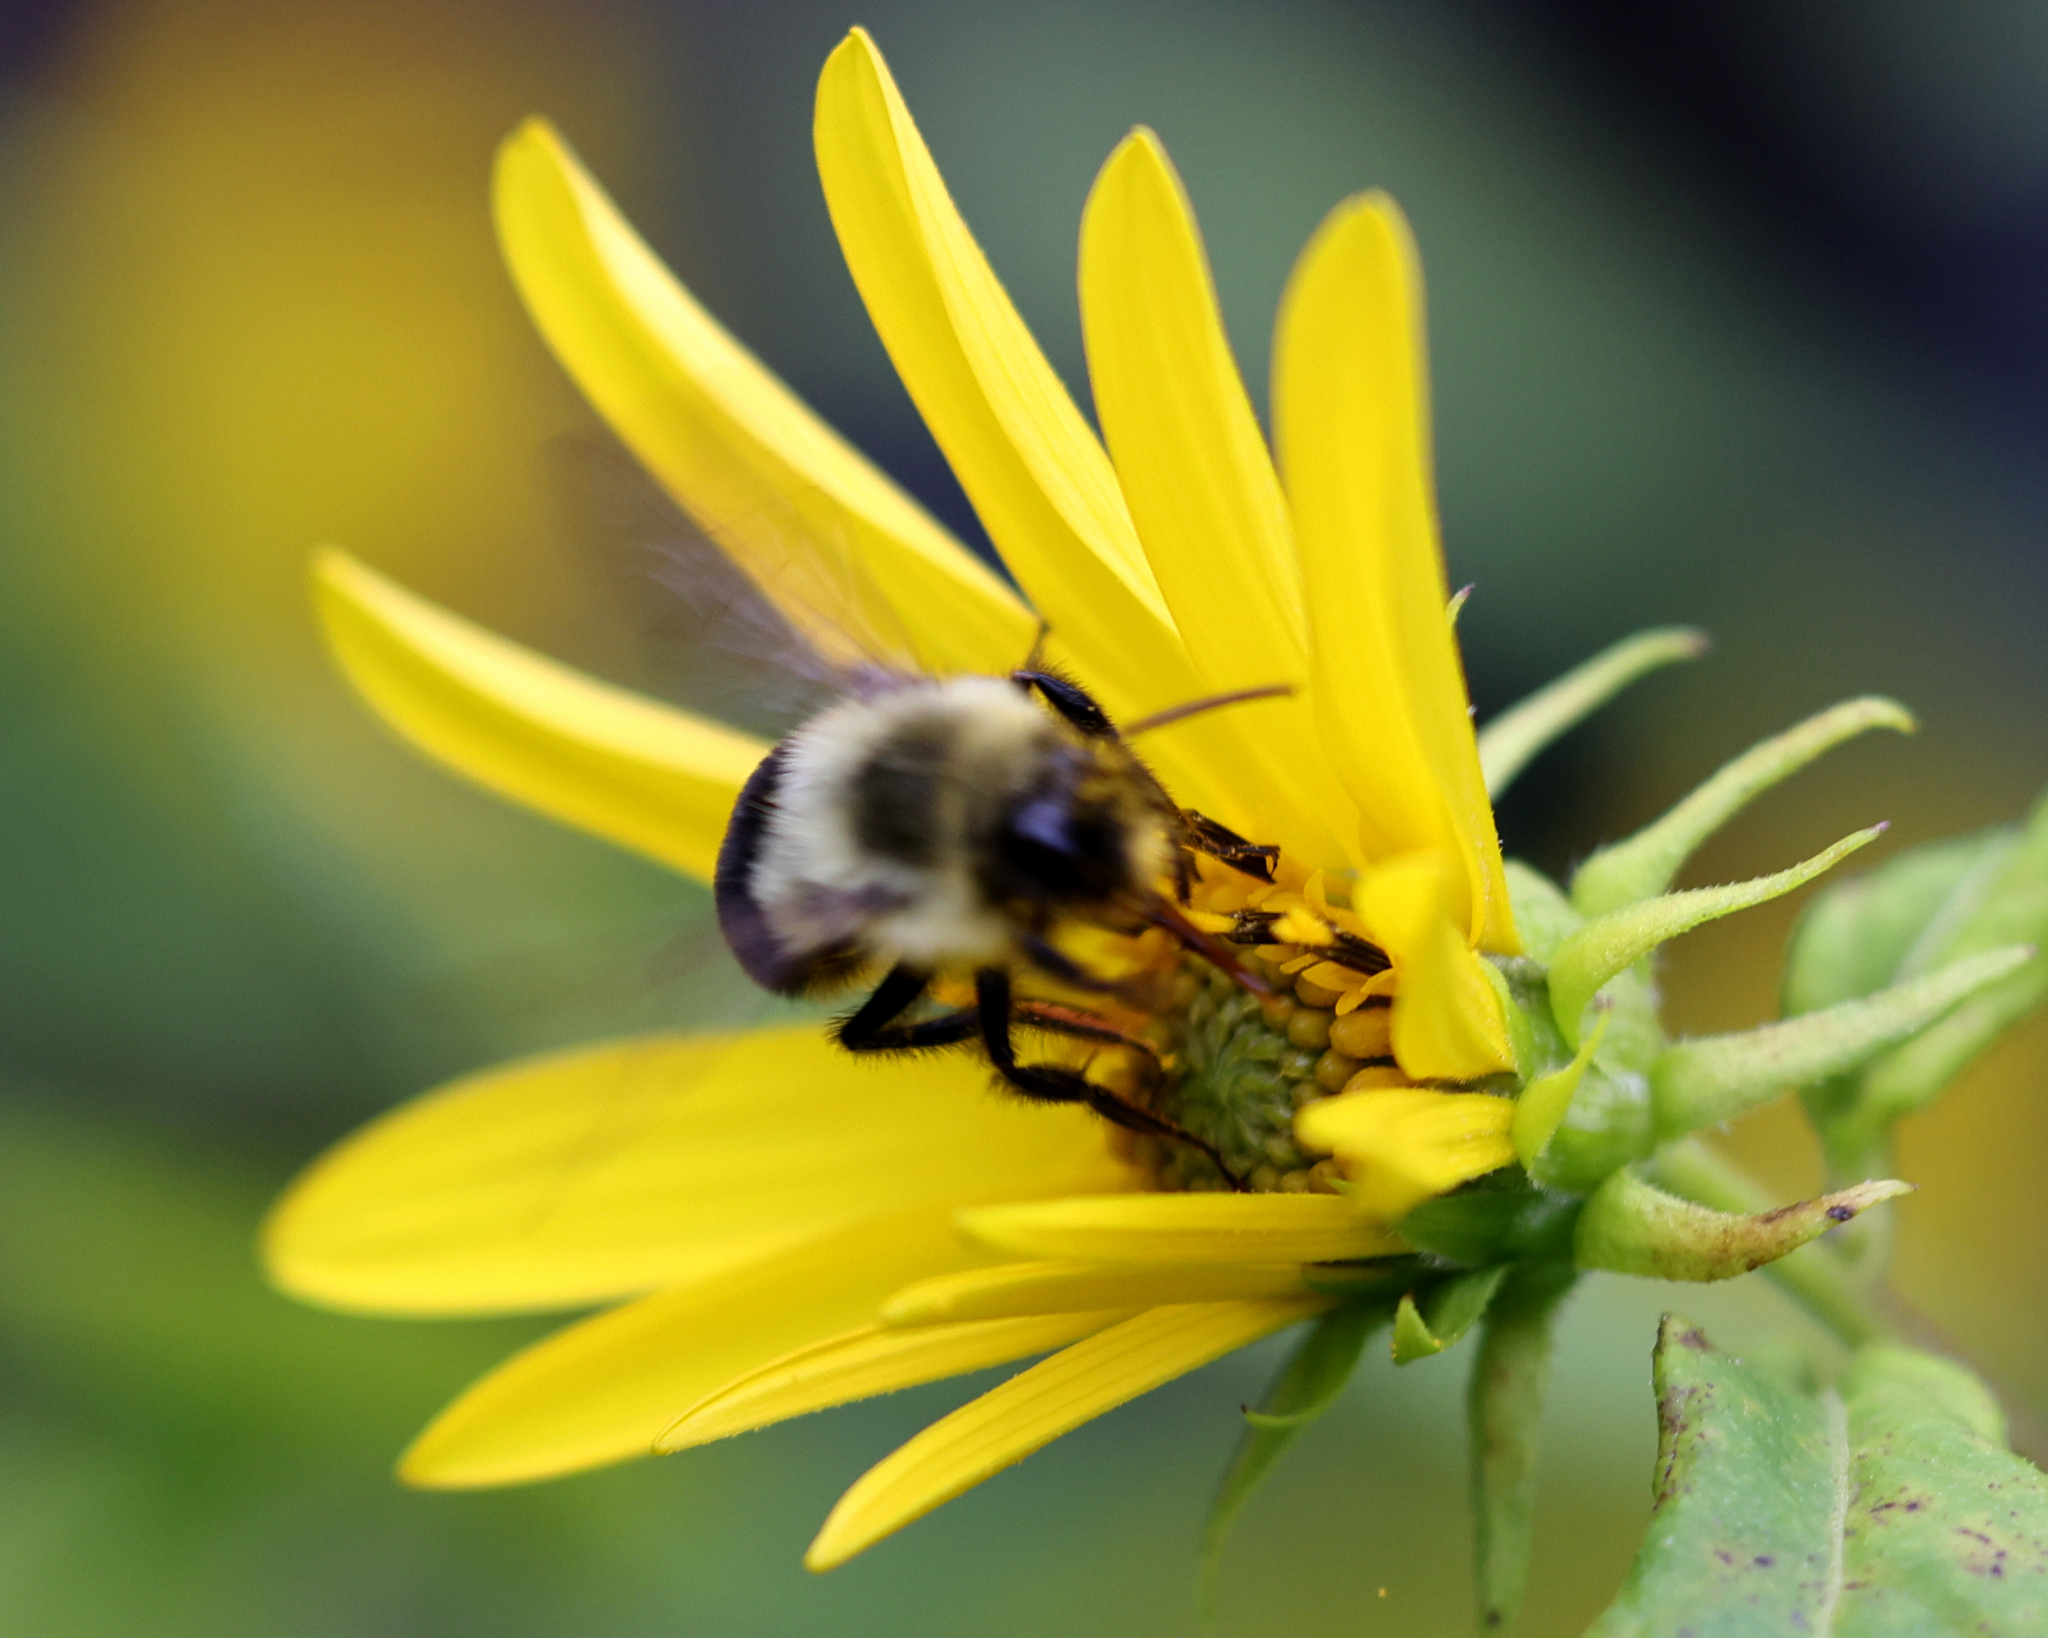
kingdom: Animalia
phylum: Arthropoda
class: Insecta
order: Hymenoptera
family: Apidae
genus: Bombus
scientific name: Bombus impatiens
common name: Common eastern bumble bee
